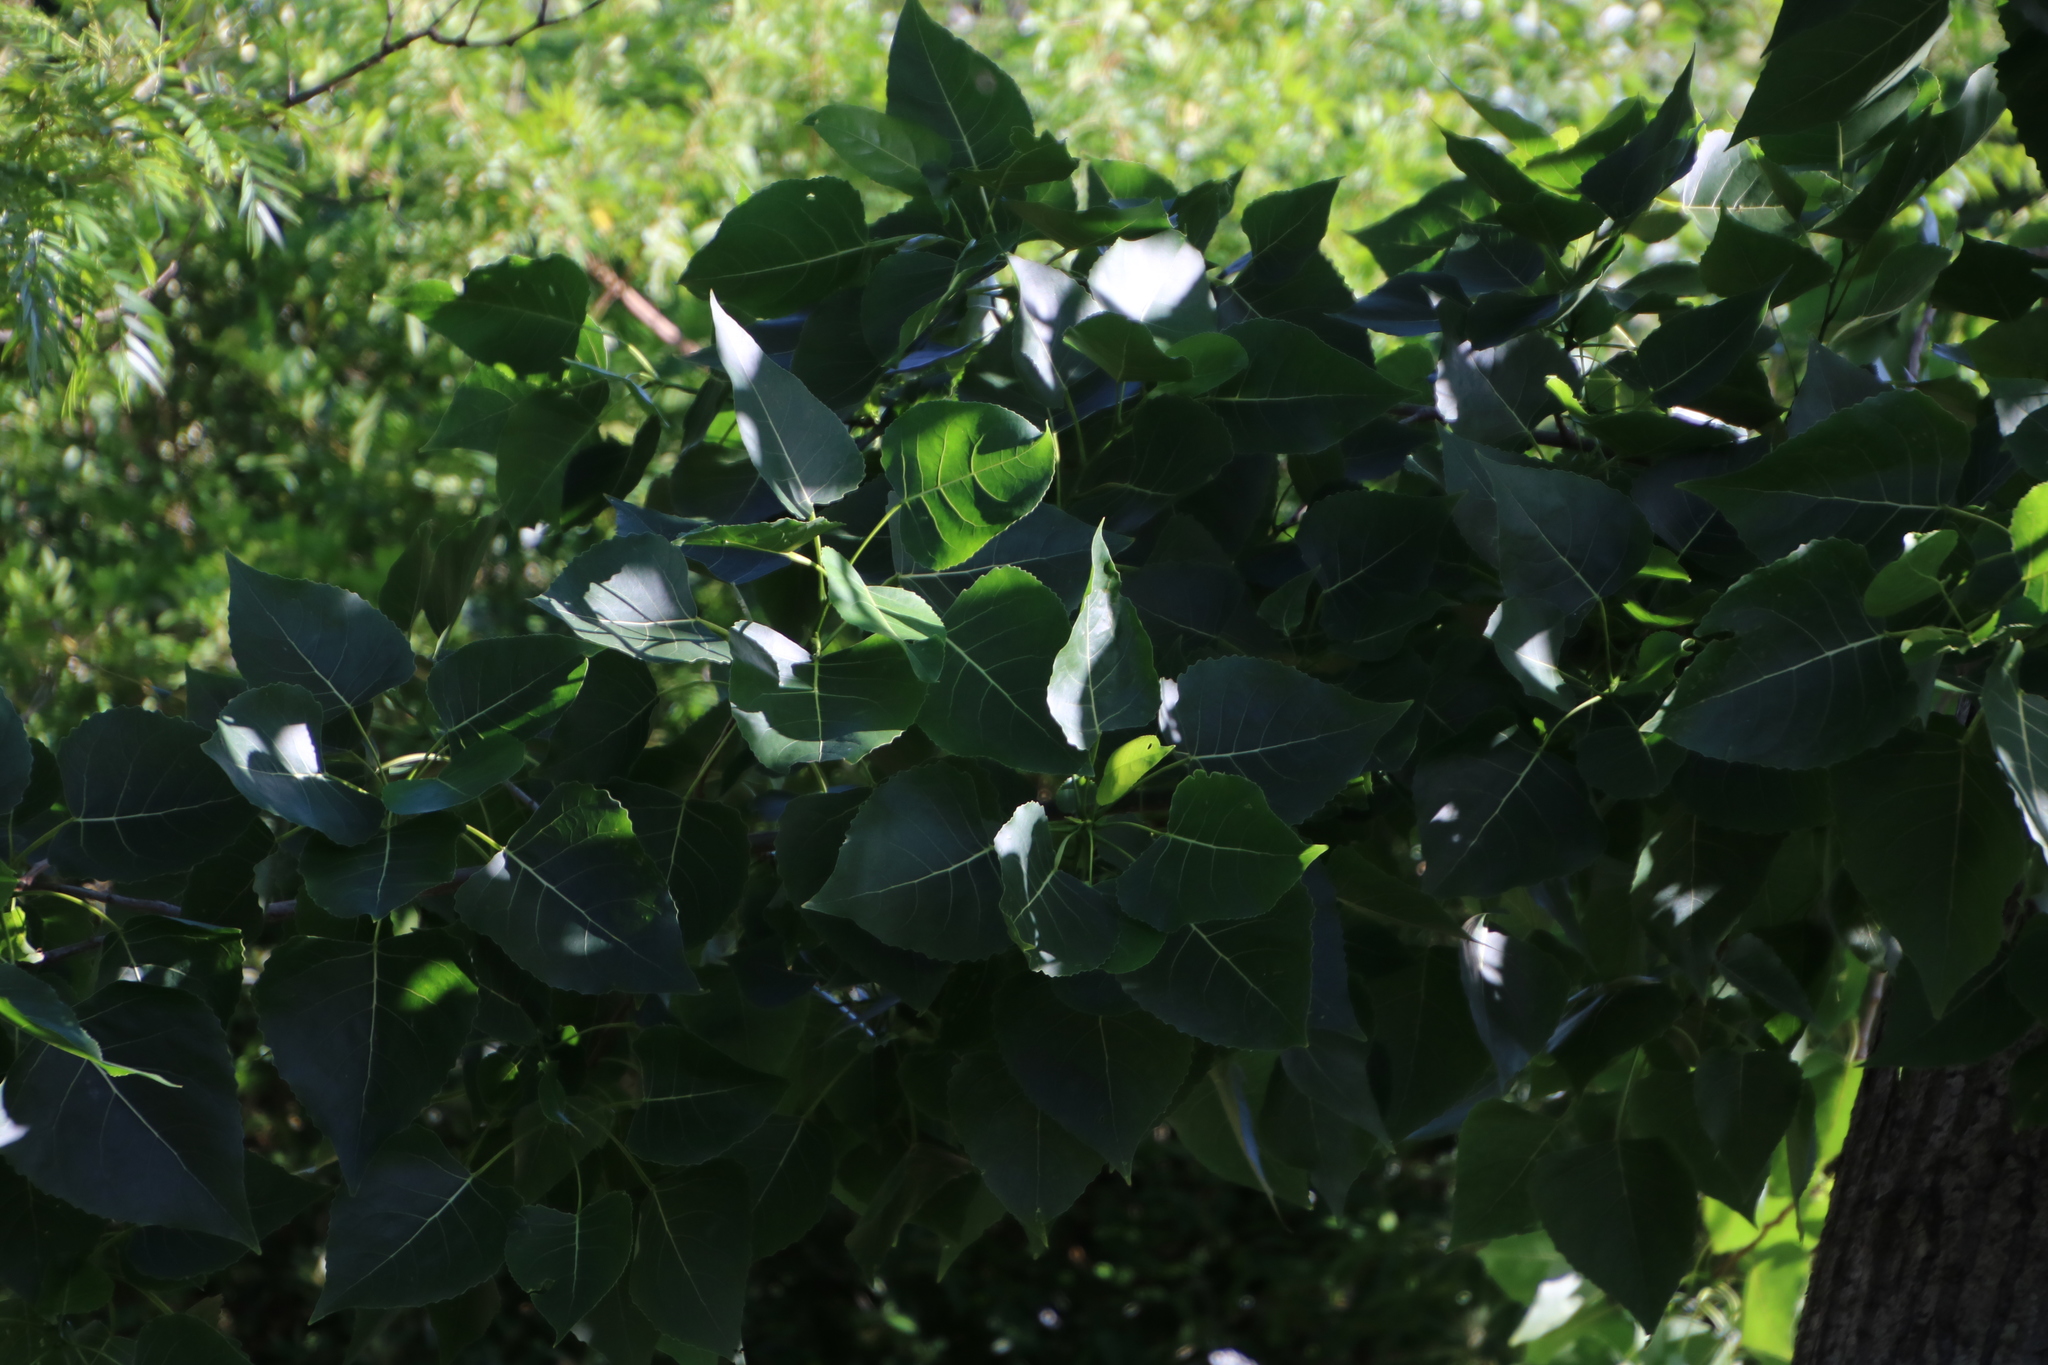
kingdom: Plantae
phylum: Tracheophyta
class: Magnoliopsida
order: Malpighiales
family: Salicaceae
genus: Populus
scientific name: Populus deltoides
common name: Eastern cottonwood
